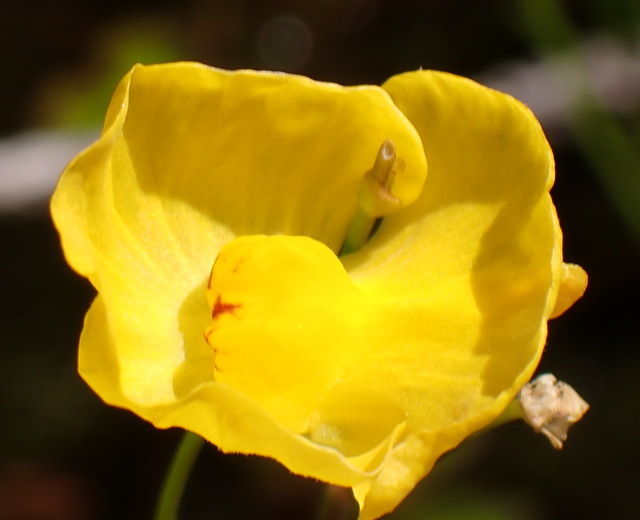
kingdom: Plantae
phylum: Tracheophyta
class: Magnoliopsida
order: Lamiales
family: Lentibulariaceae
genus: Utricularia
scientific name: Utricularia gibba
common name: Humped bladderwort
